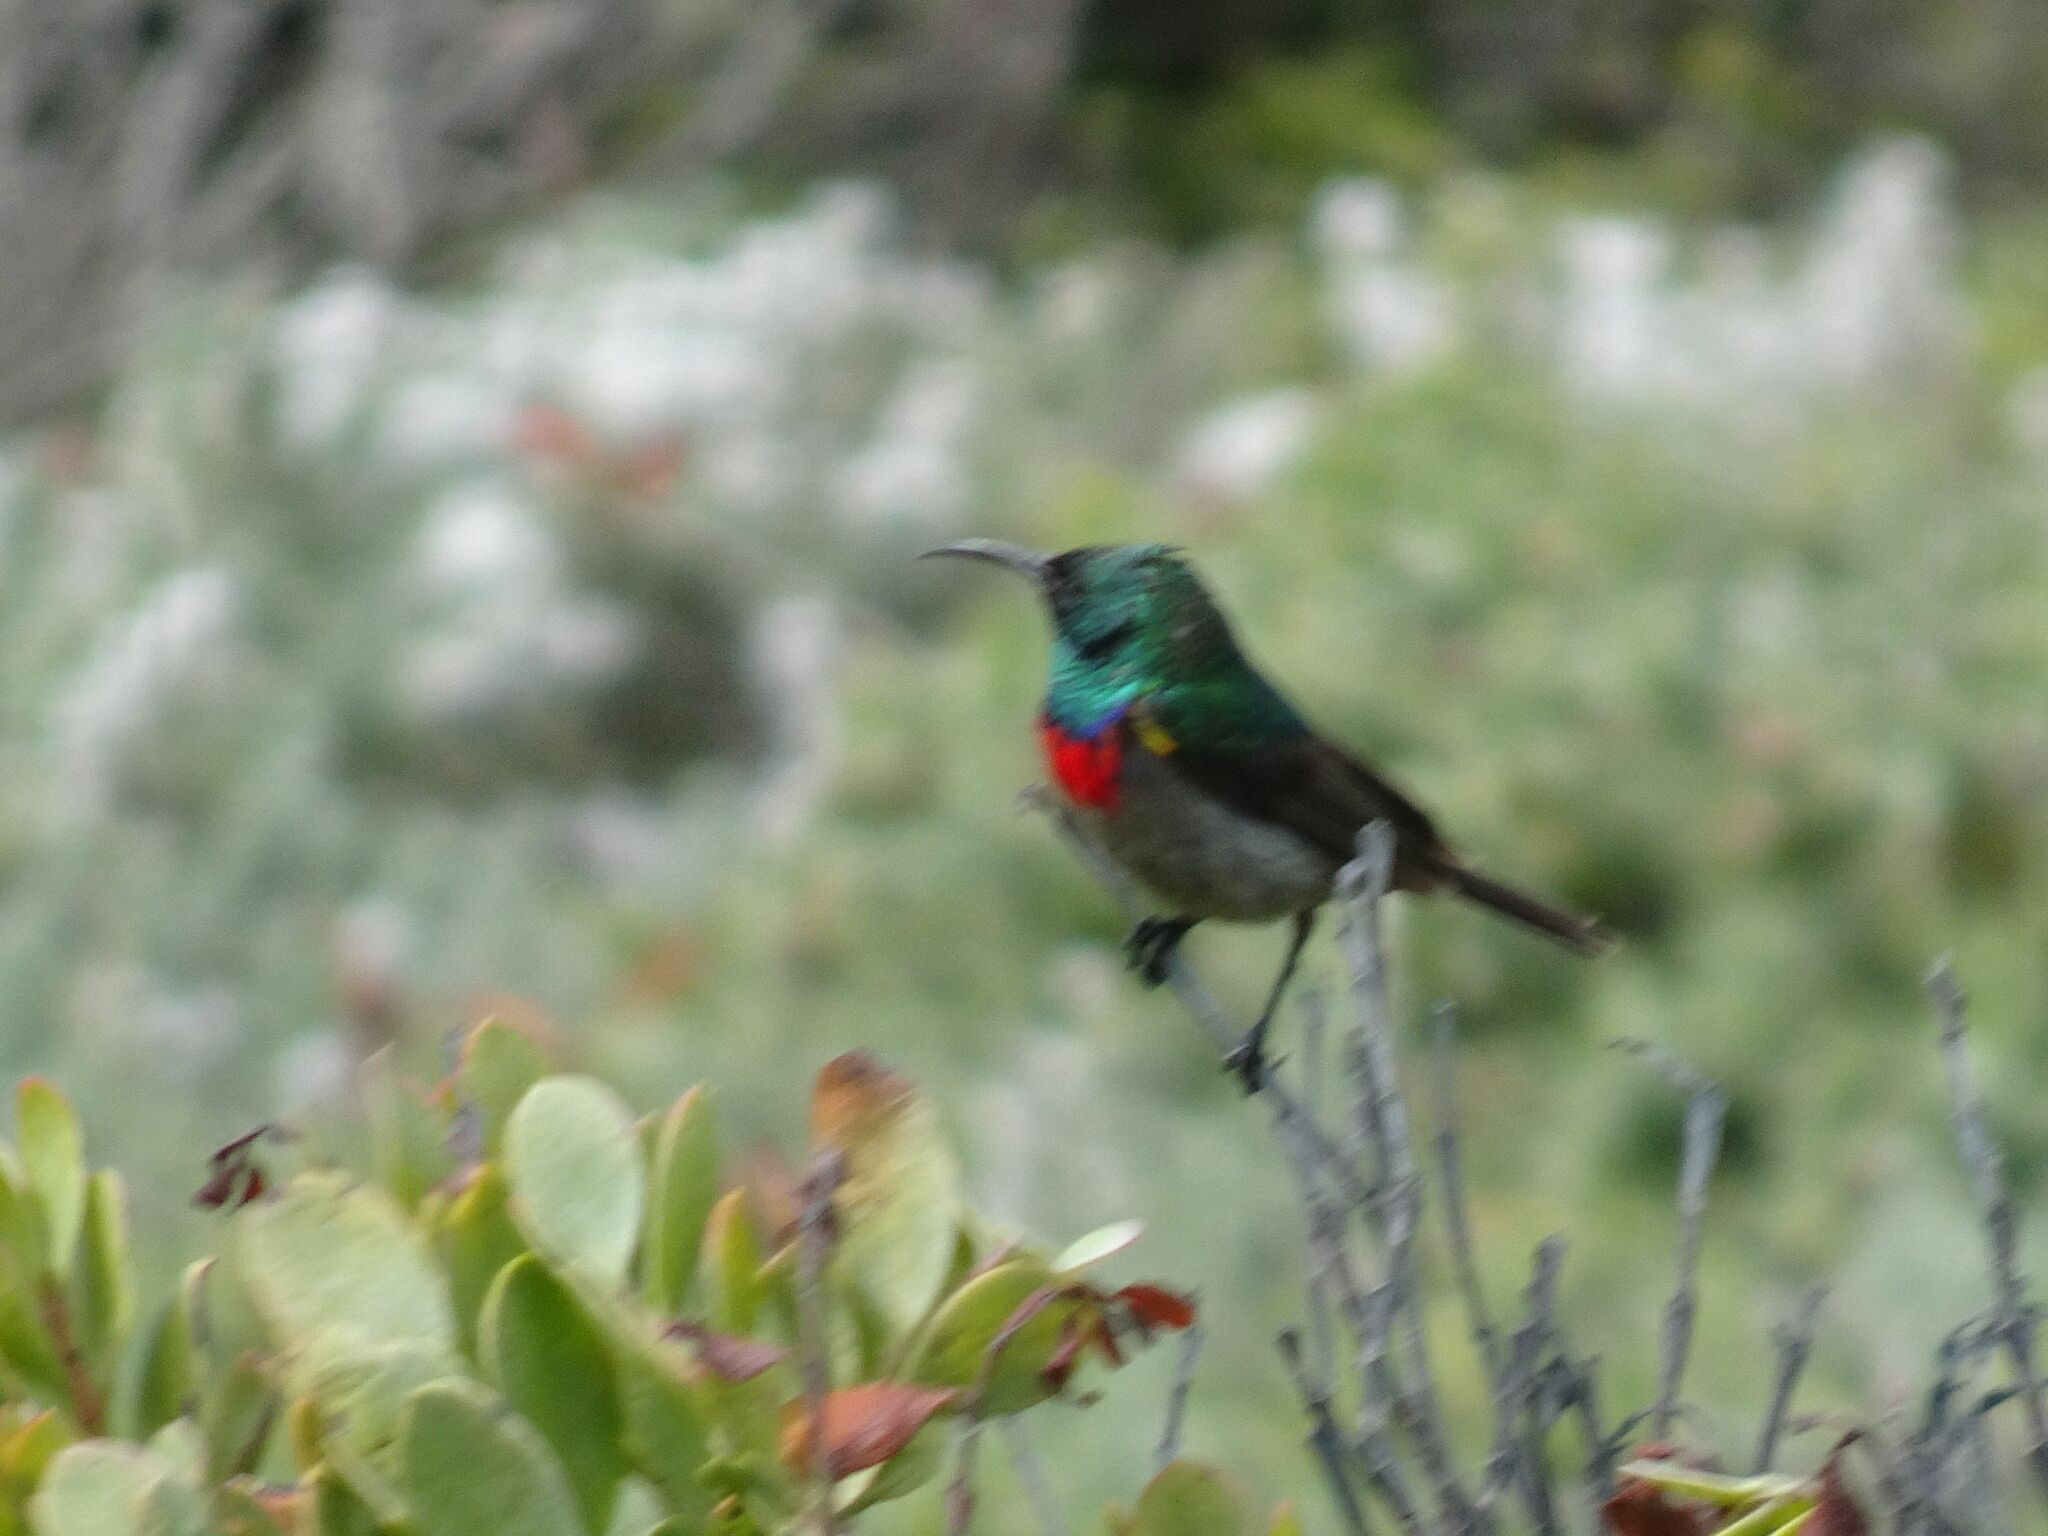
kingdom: Animalia
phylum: Chordata
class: Aves
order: Passeriformes
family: Nectariniidae
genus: Cinnyris
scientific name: Cinnyris chalybeus
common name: Southern double-collared sunbird
